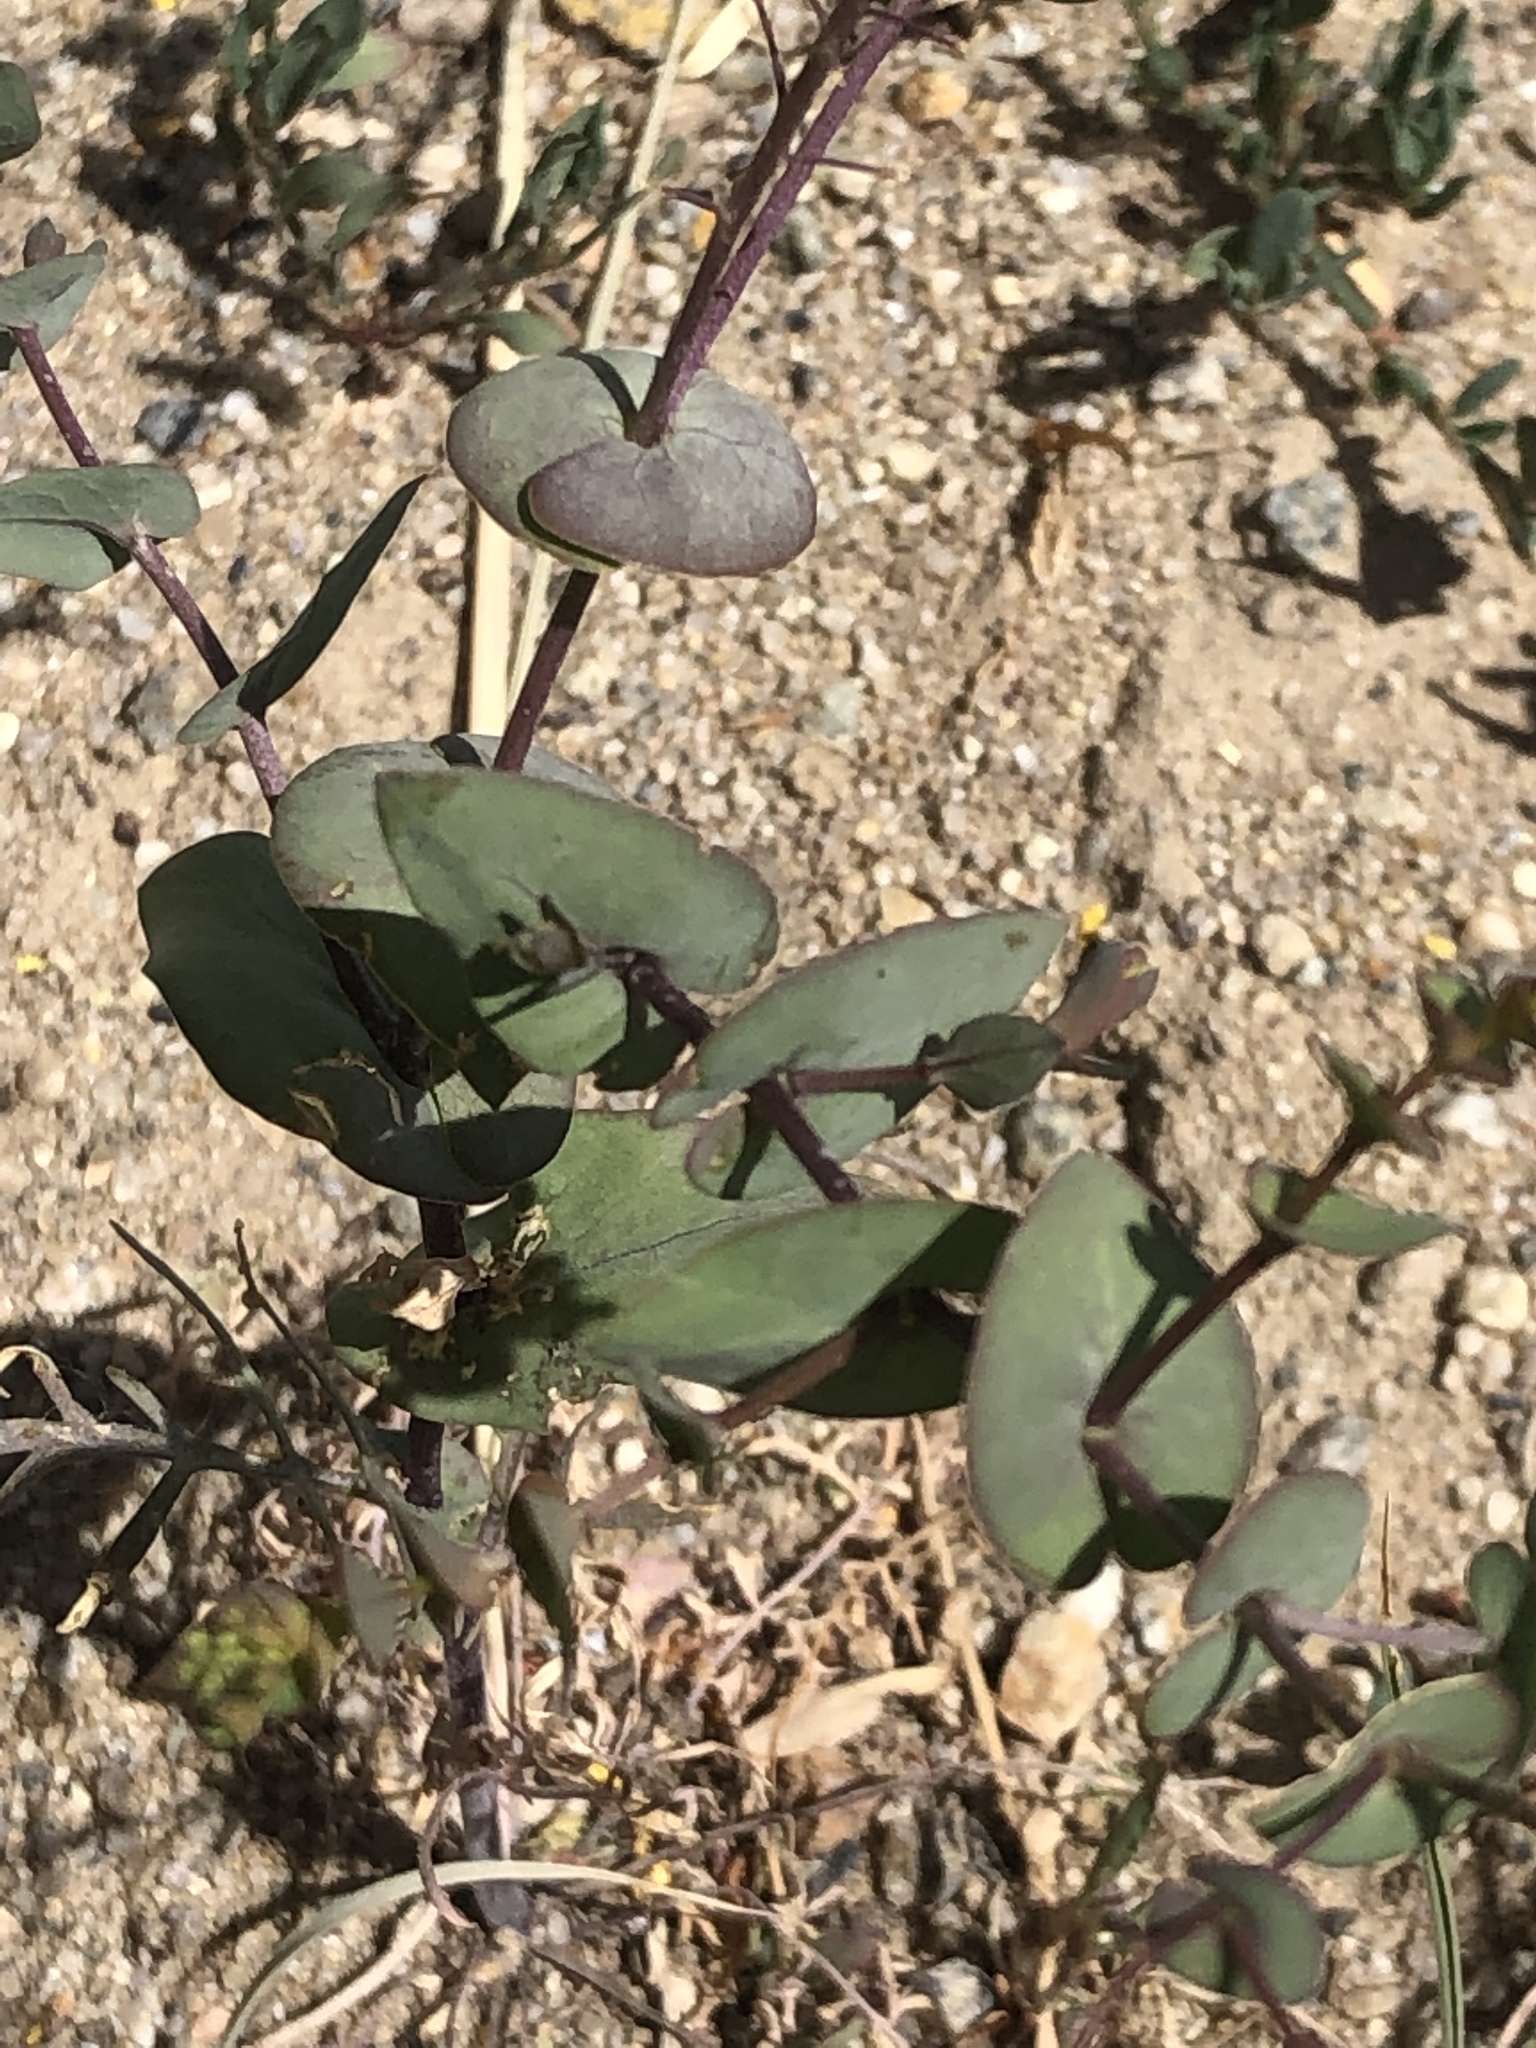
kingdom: Plantae
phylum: Tracheophyta
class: Magnoliopsida
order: Brassicales
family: Brassicaceae
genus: Lepidium
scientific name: Lepidium perfoliatum
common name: Perfoliate pepperwort
